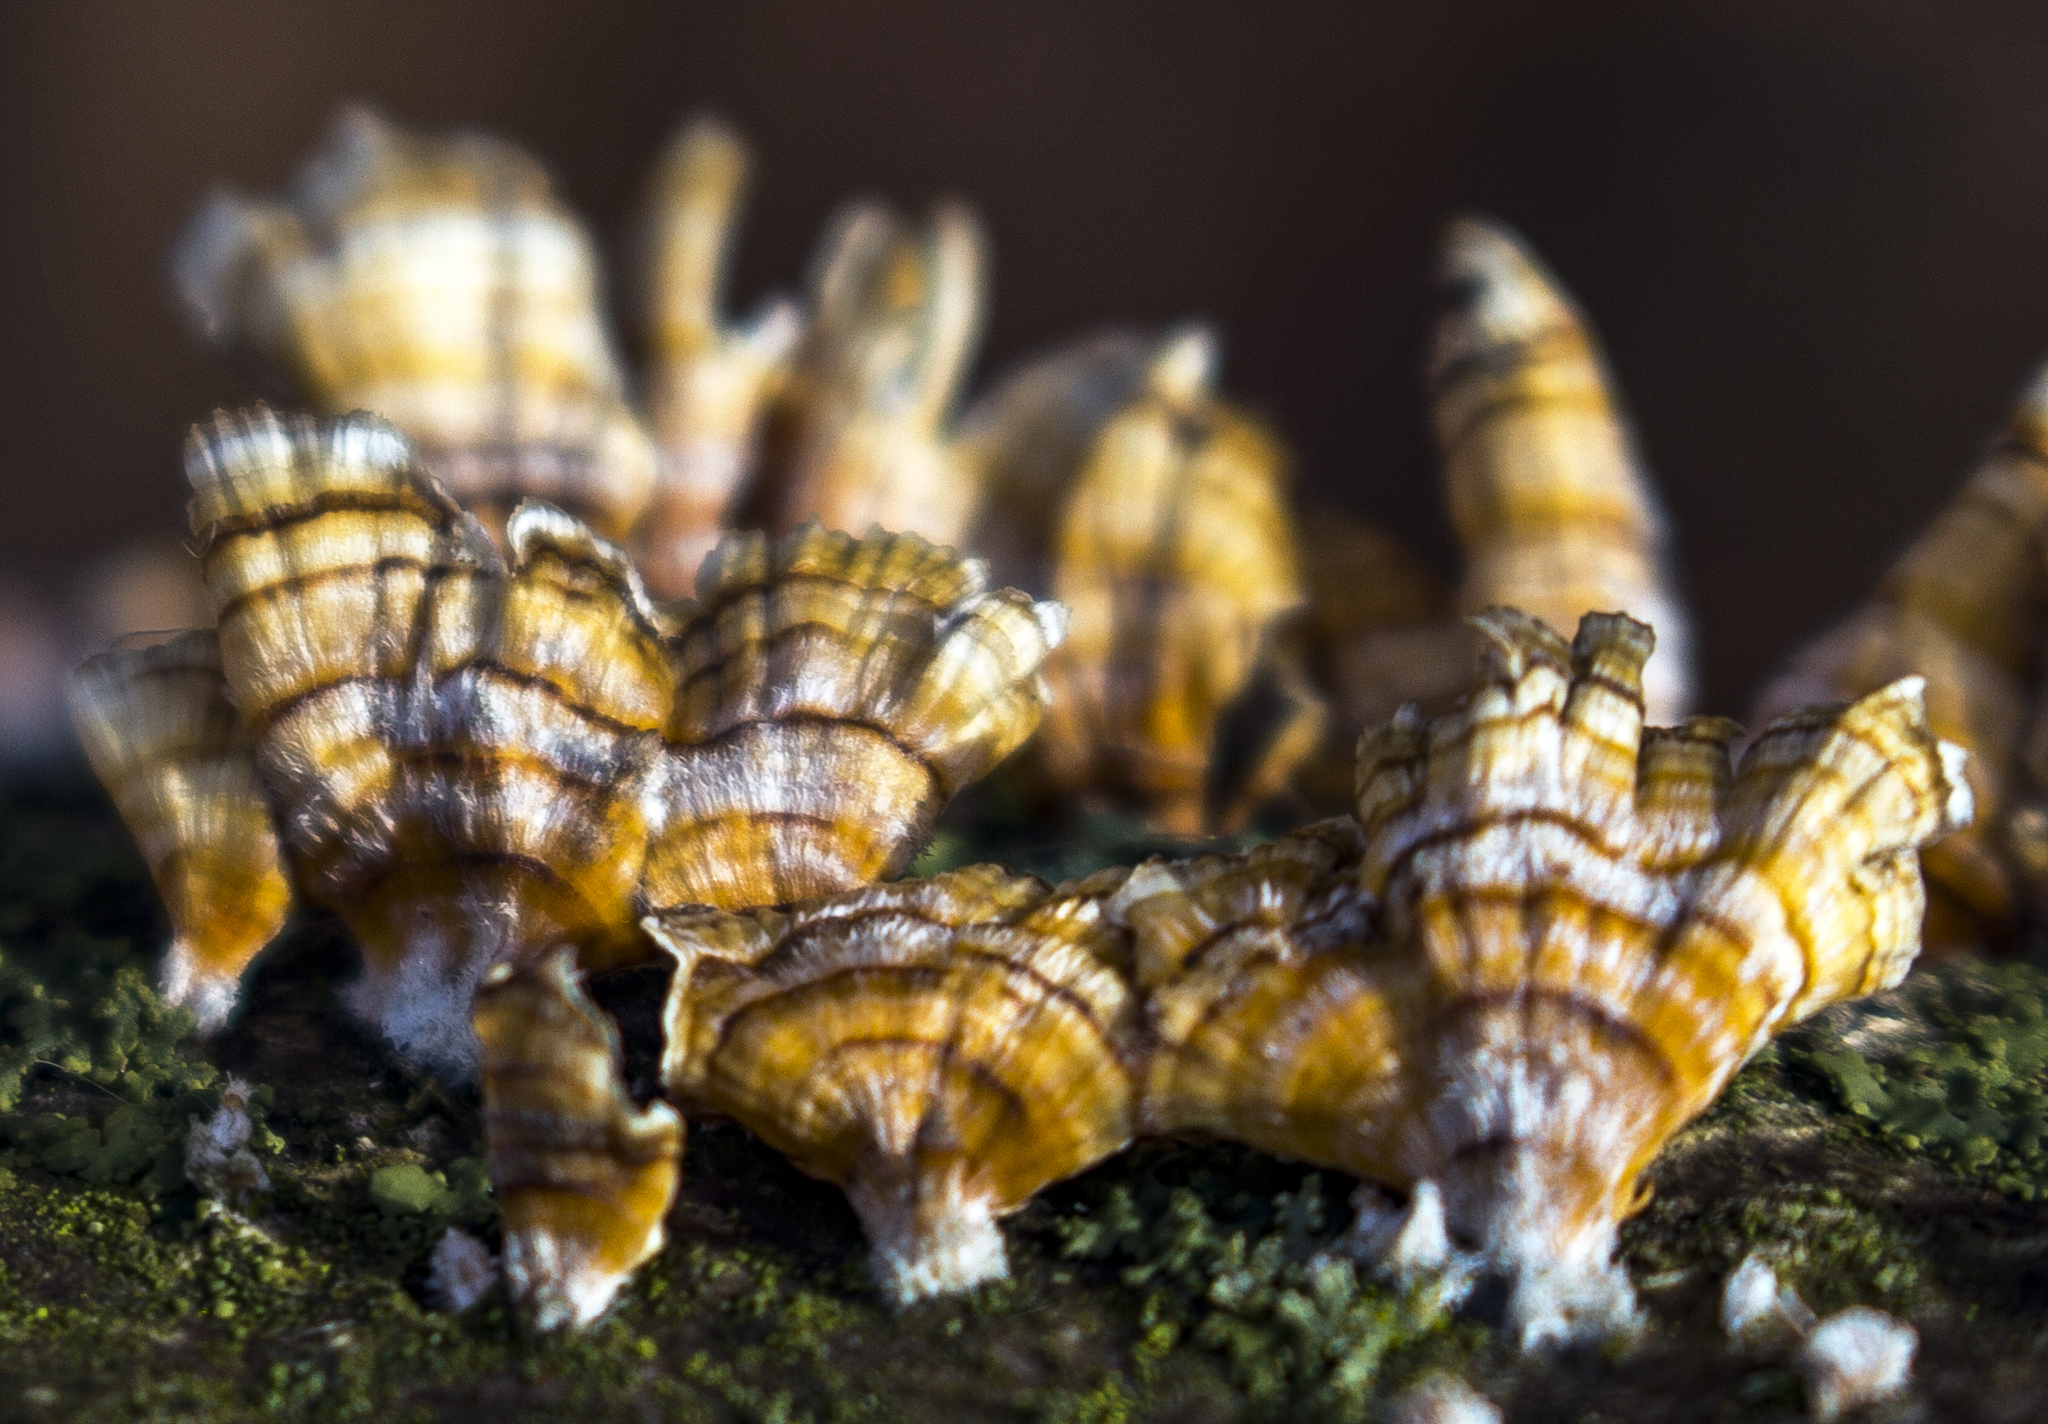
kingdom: Fungi
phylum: Basidiomycota
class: Agaricomycetes
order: Russulales
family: Stereaceae
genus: Stereum
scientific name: Stereum complicatum
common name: Crowded parchment
